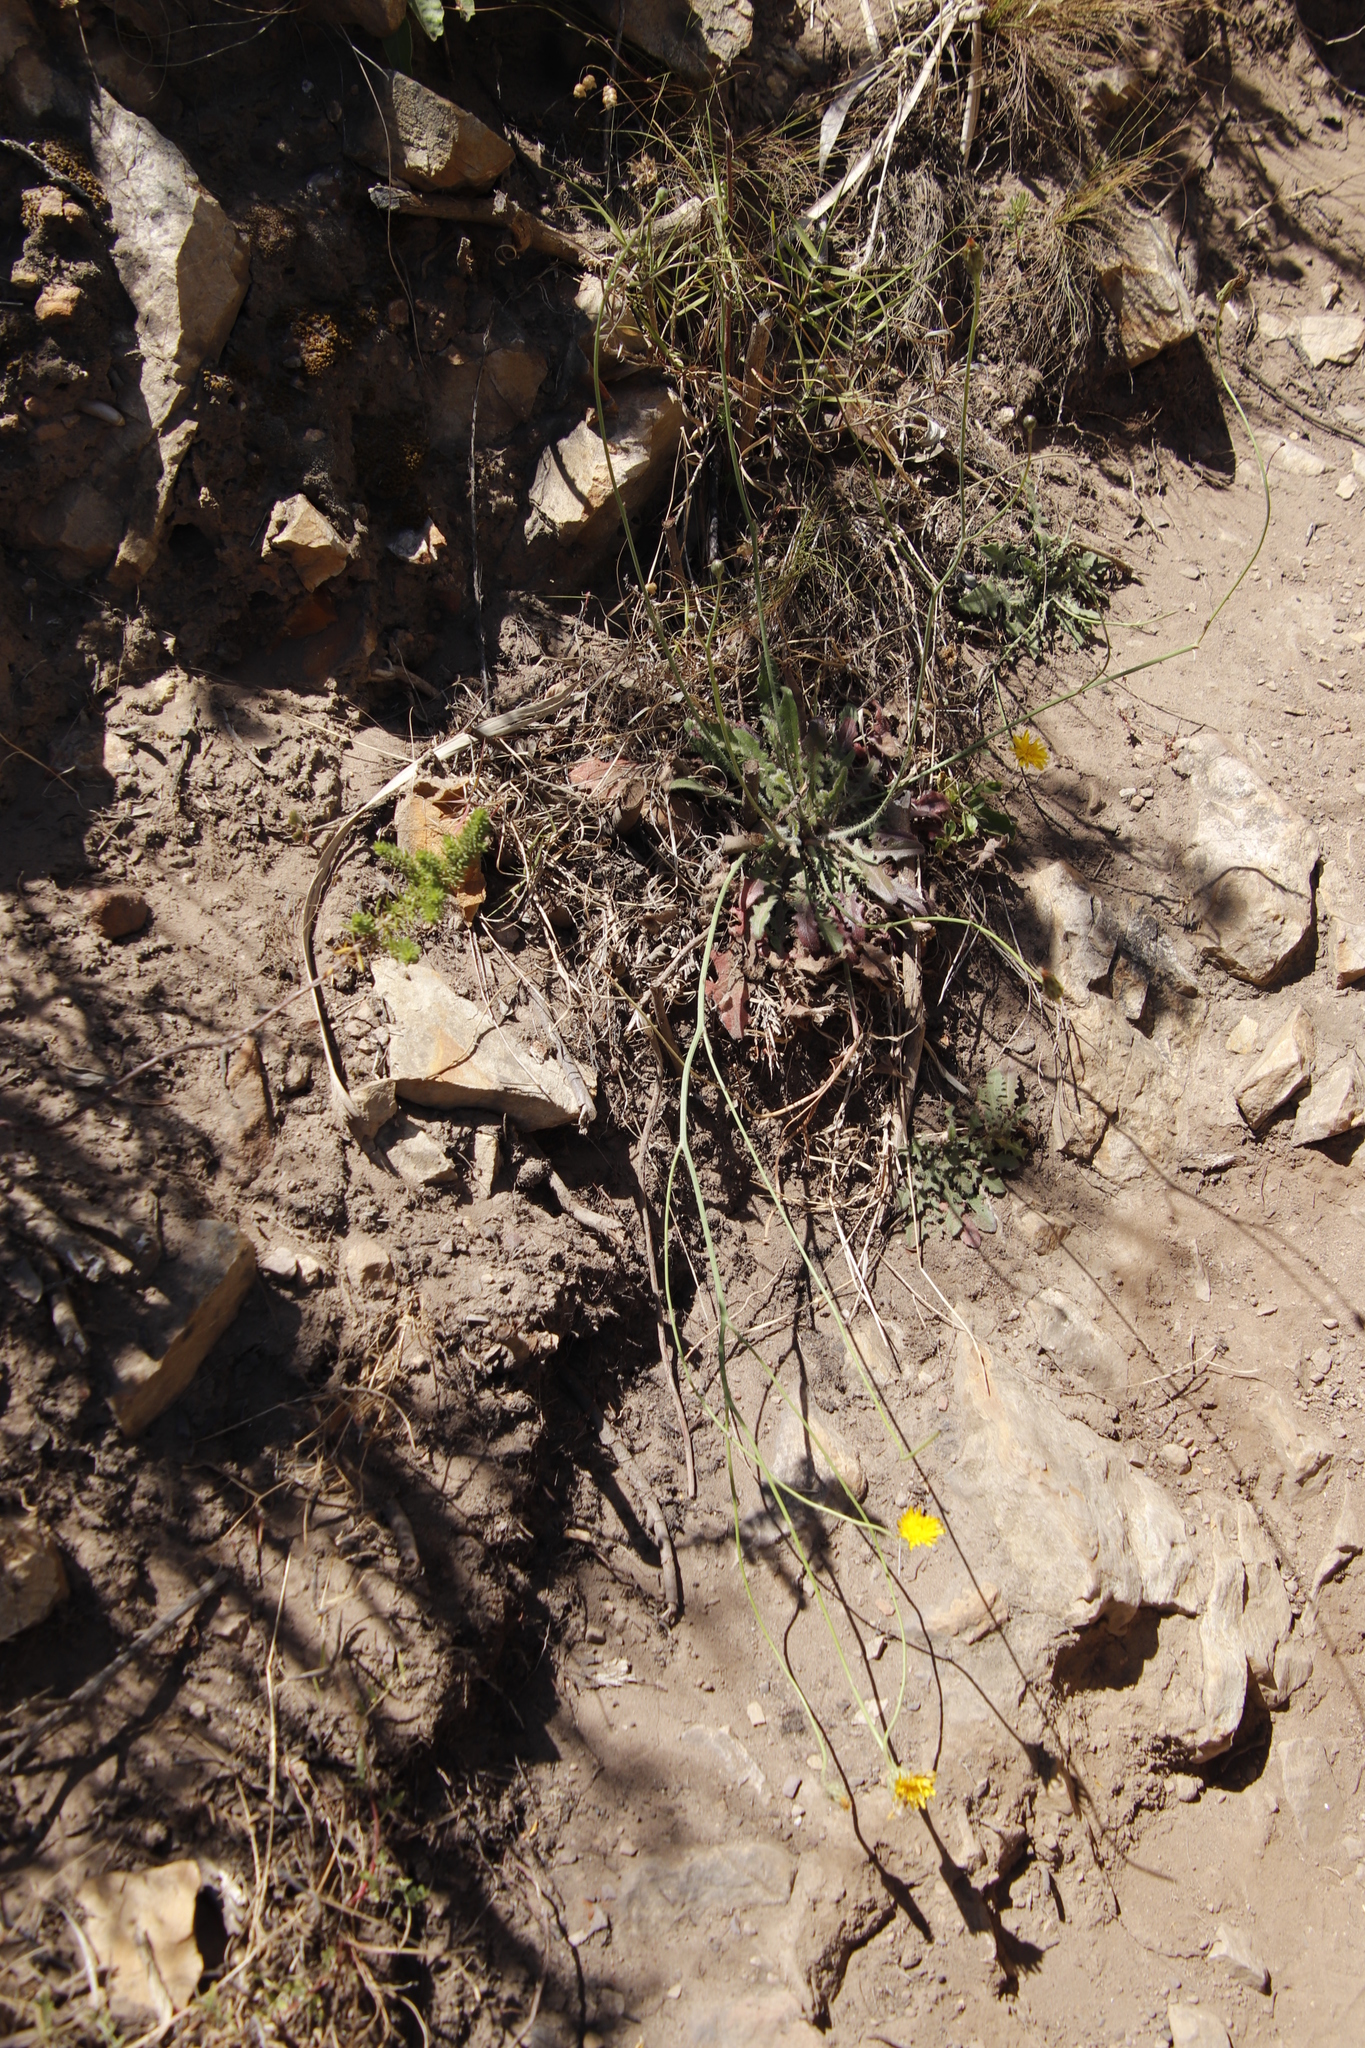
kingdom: Plantae
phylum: Tracheophyta
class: Magnoliopsida
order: Asterales
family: Asteraceae
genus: Hypochaeris
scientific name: Hypochaeris radicata
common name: Flatweed
